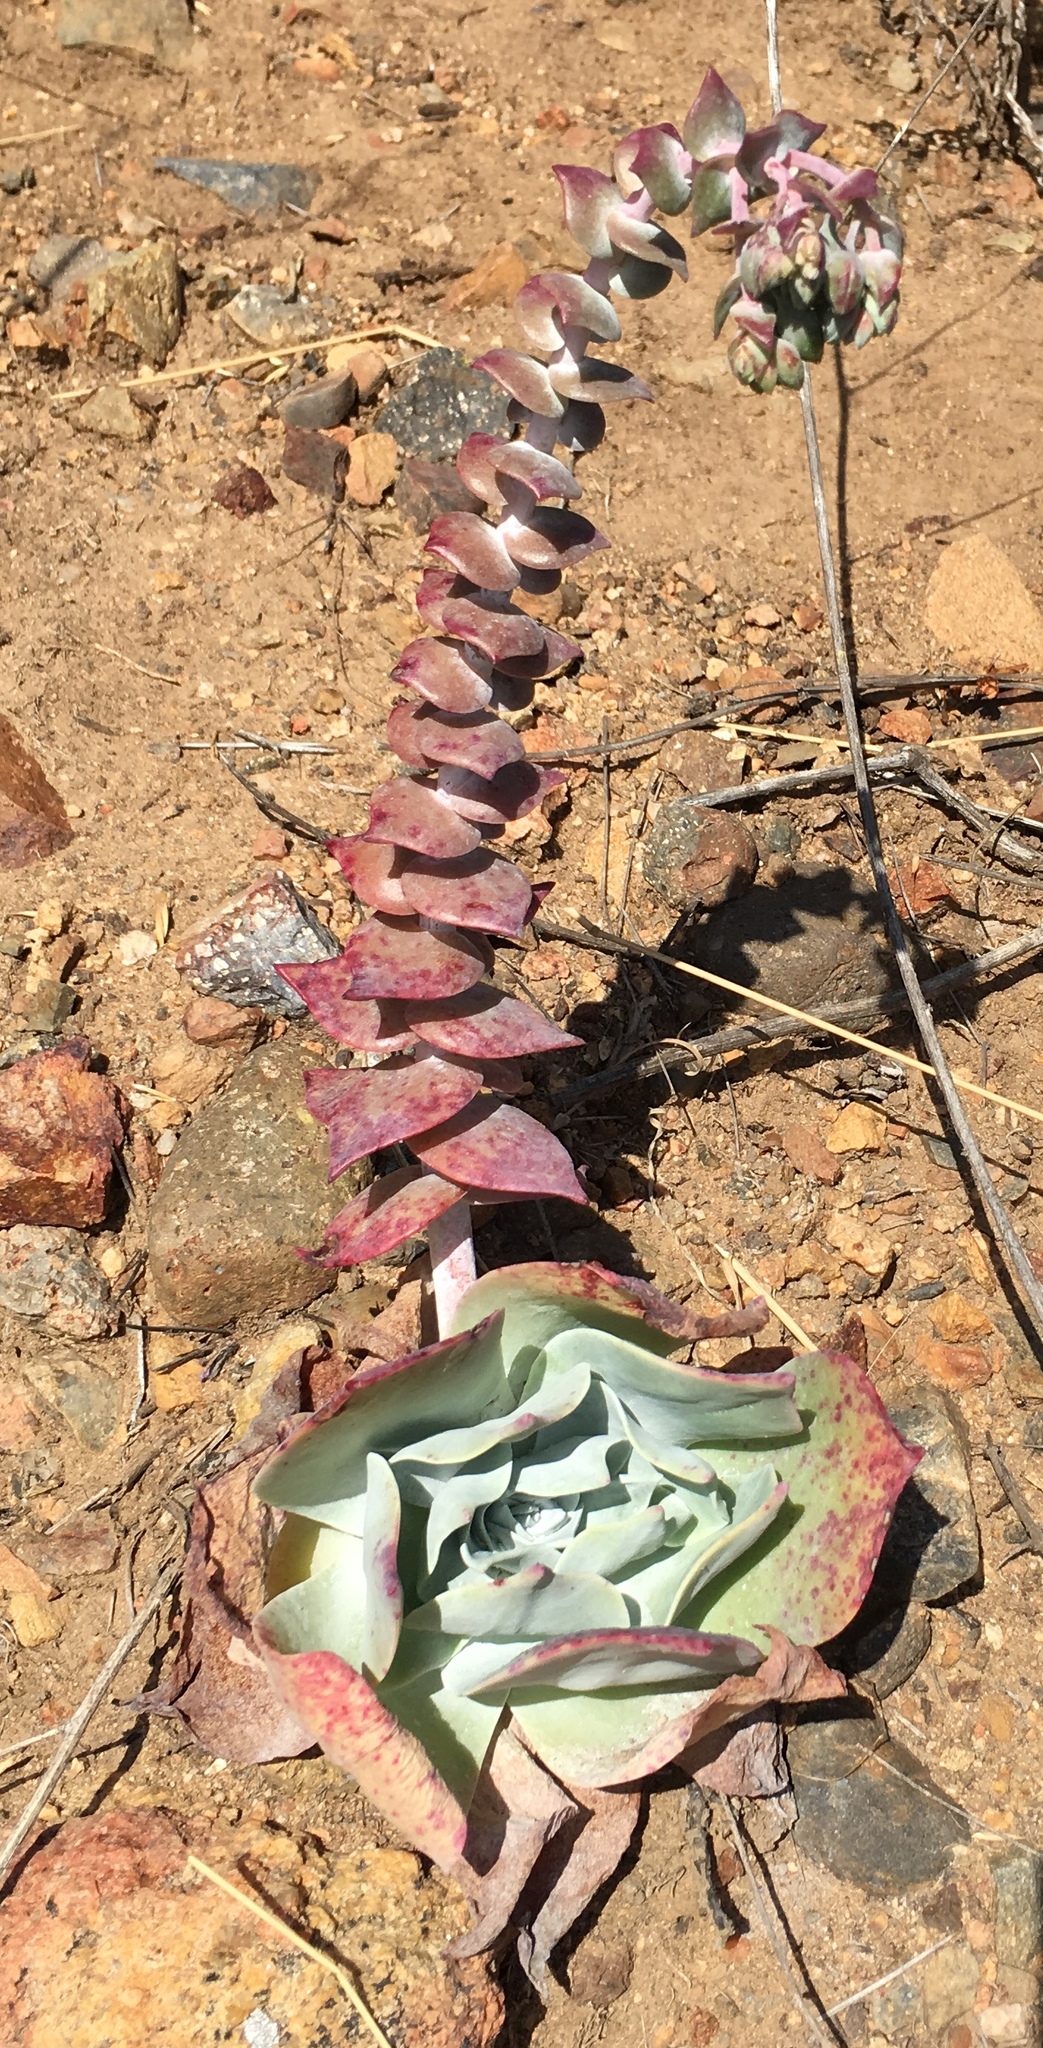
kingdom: Plantae
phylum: Tracheophyta
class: Magnoliopsida
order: Saxifragales
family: Crassulaceae
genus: Dudleya
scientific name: Dudleya pulverulenta
